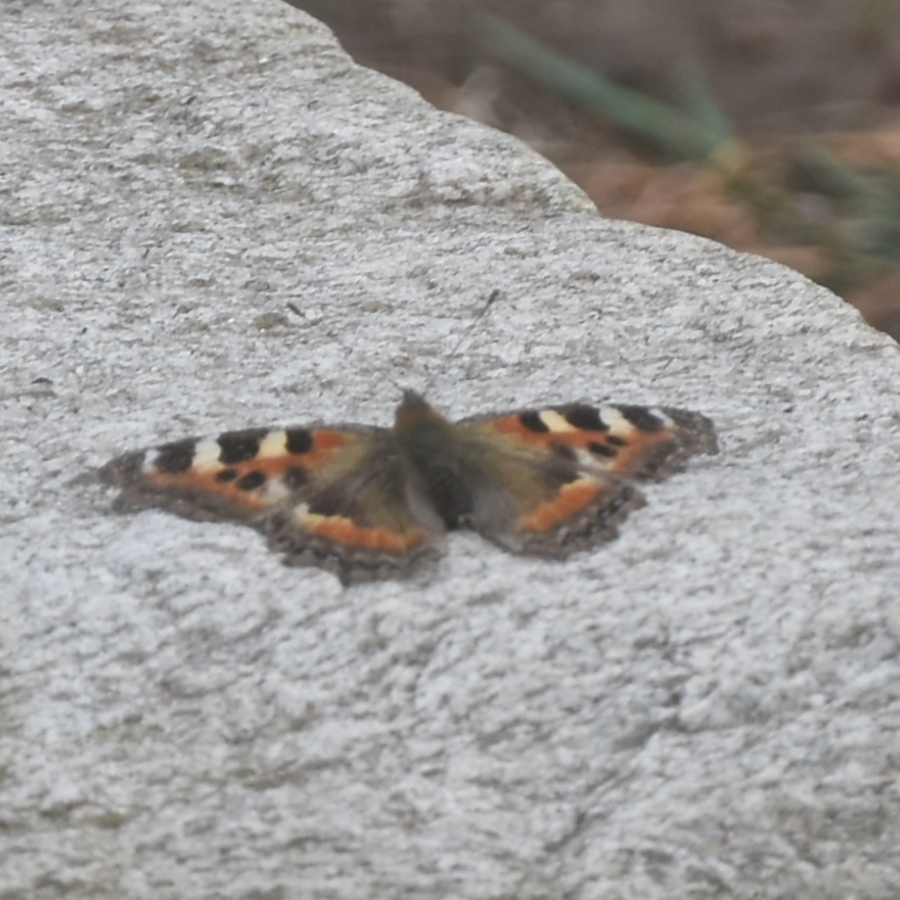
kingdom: Animalia
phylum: Arthropoda
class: Insecta
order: Lepidoptera
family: Nymphalidae
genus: Aglais
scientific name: Aglais caschmirensis
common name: Indian tortoiseshell
